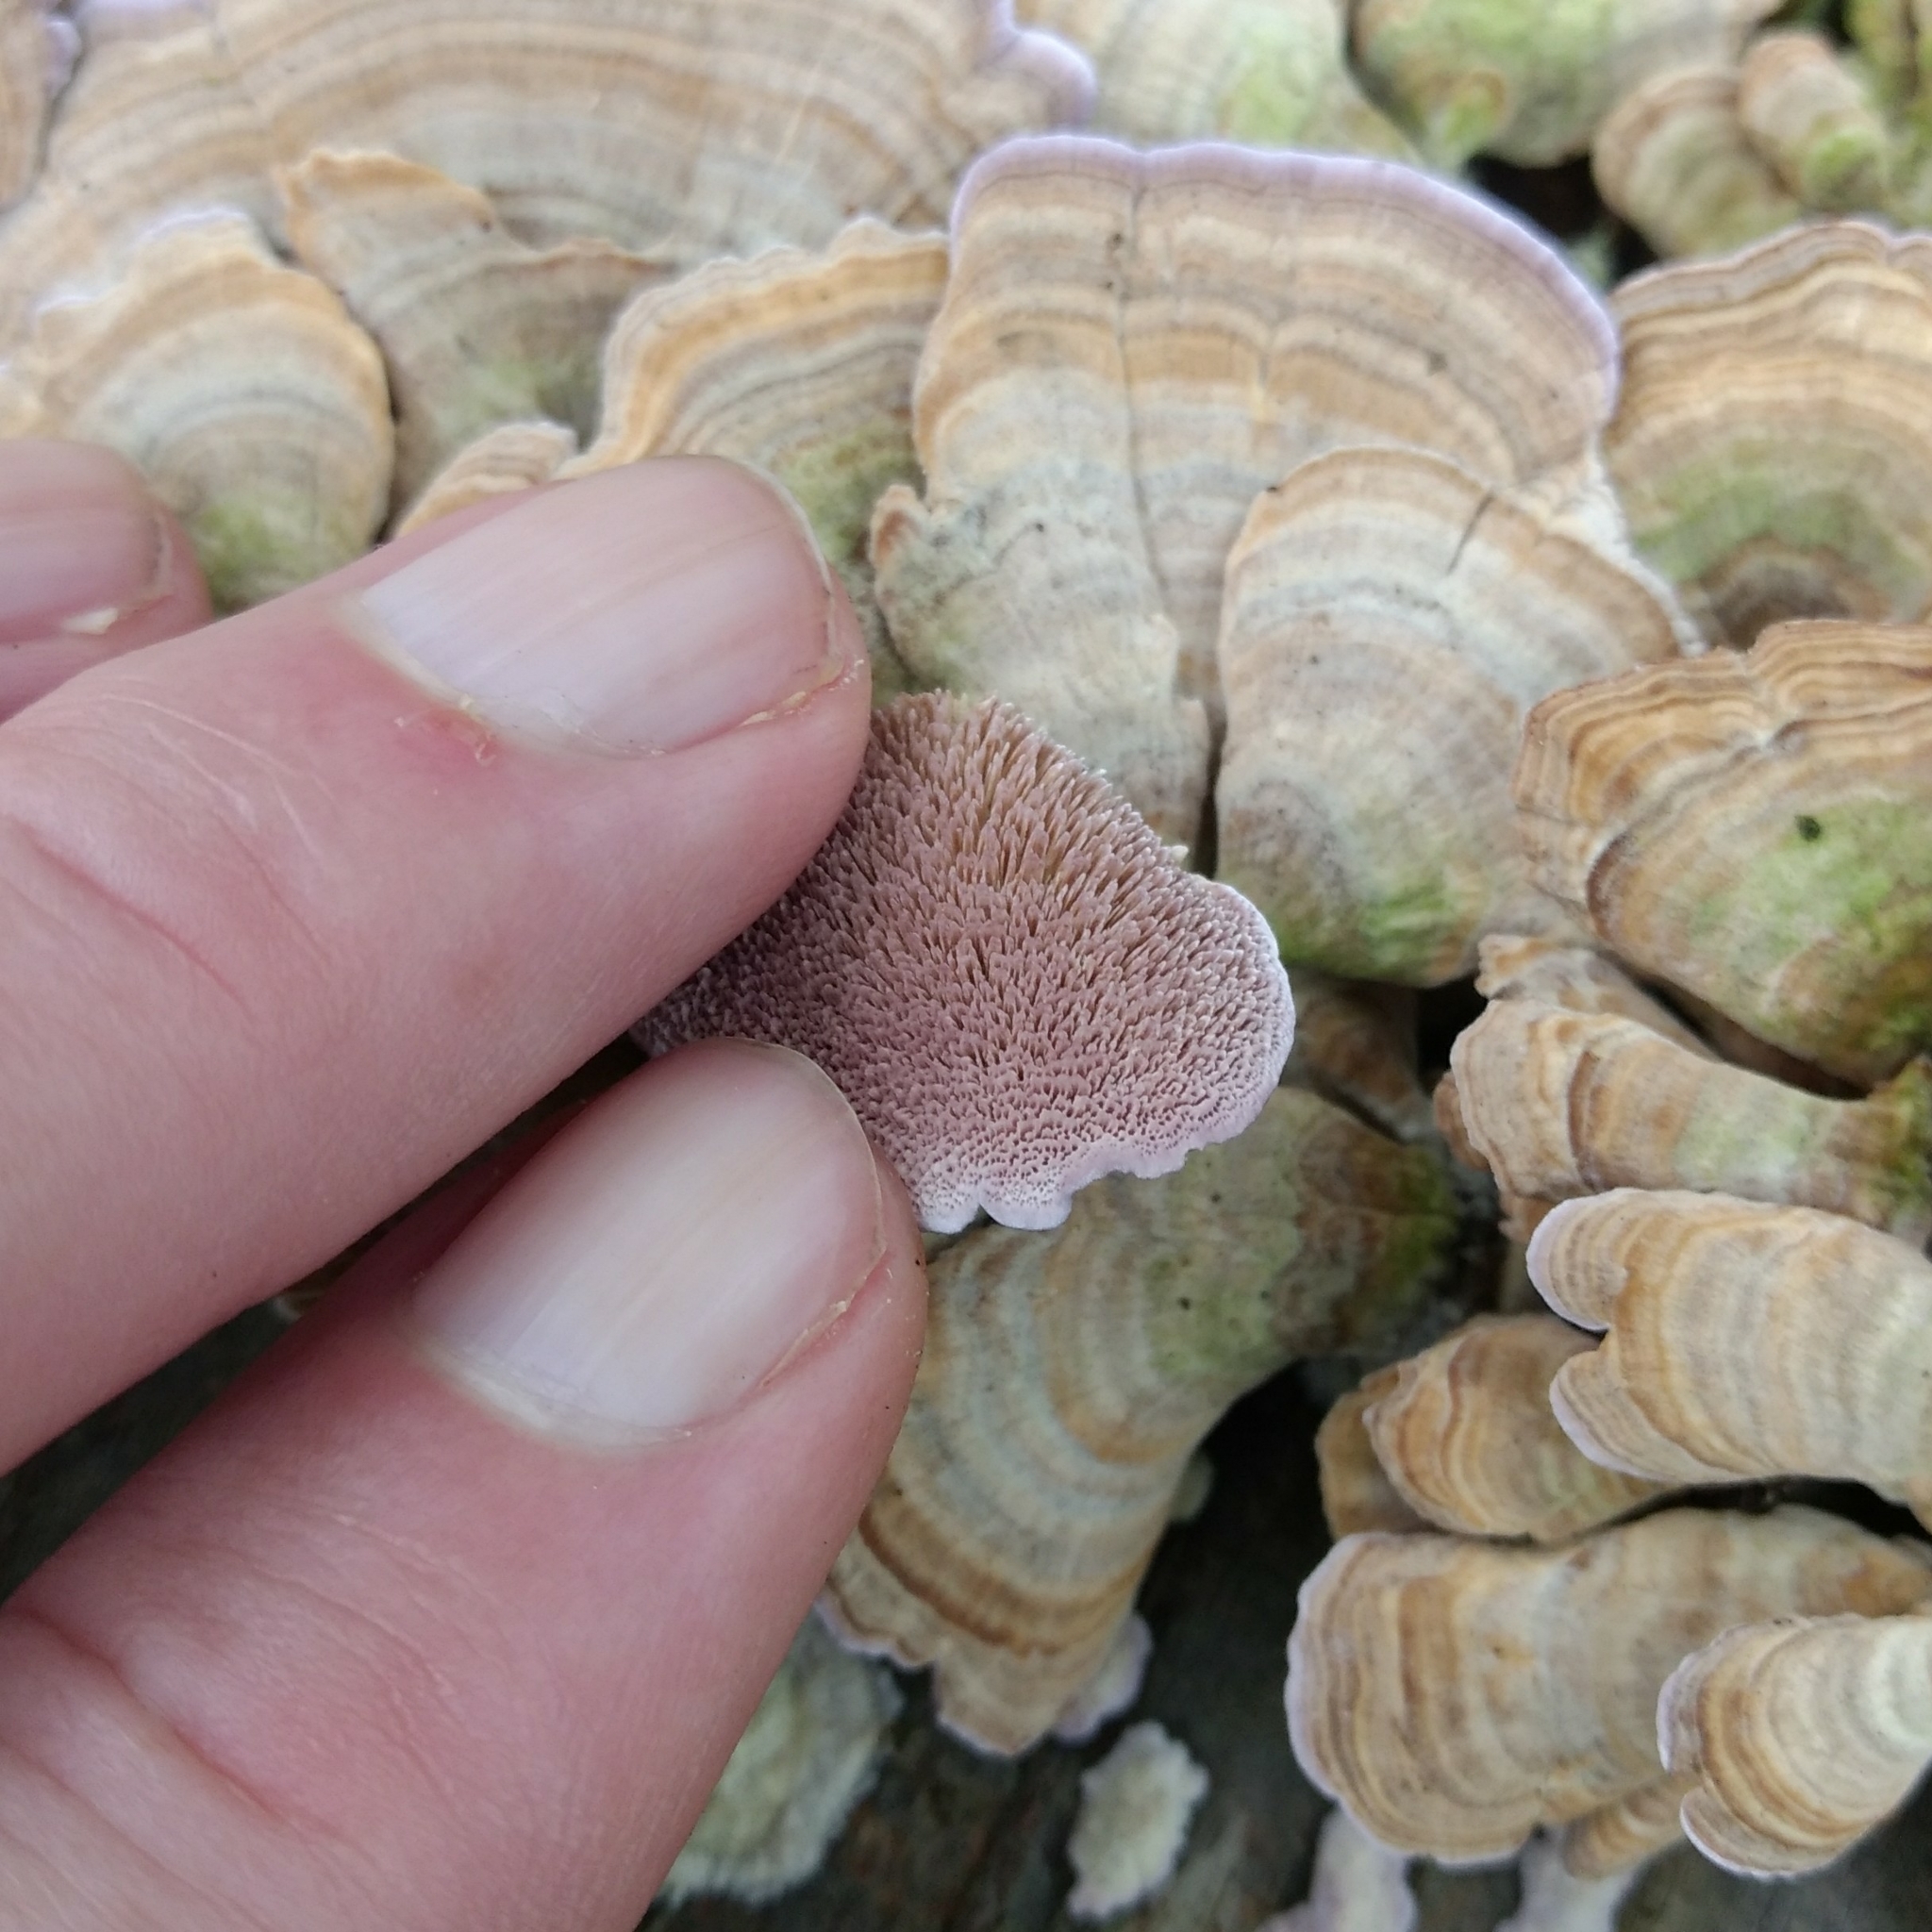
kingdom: Fungi
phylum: Basidiomycota
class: Agaricomycetes
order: Hymenochaetales
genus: Trichaptum
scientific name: Trichaptum biforme
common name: Violet-toothed polypore
